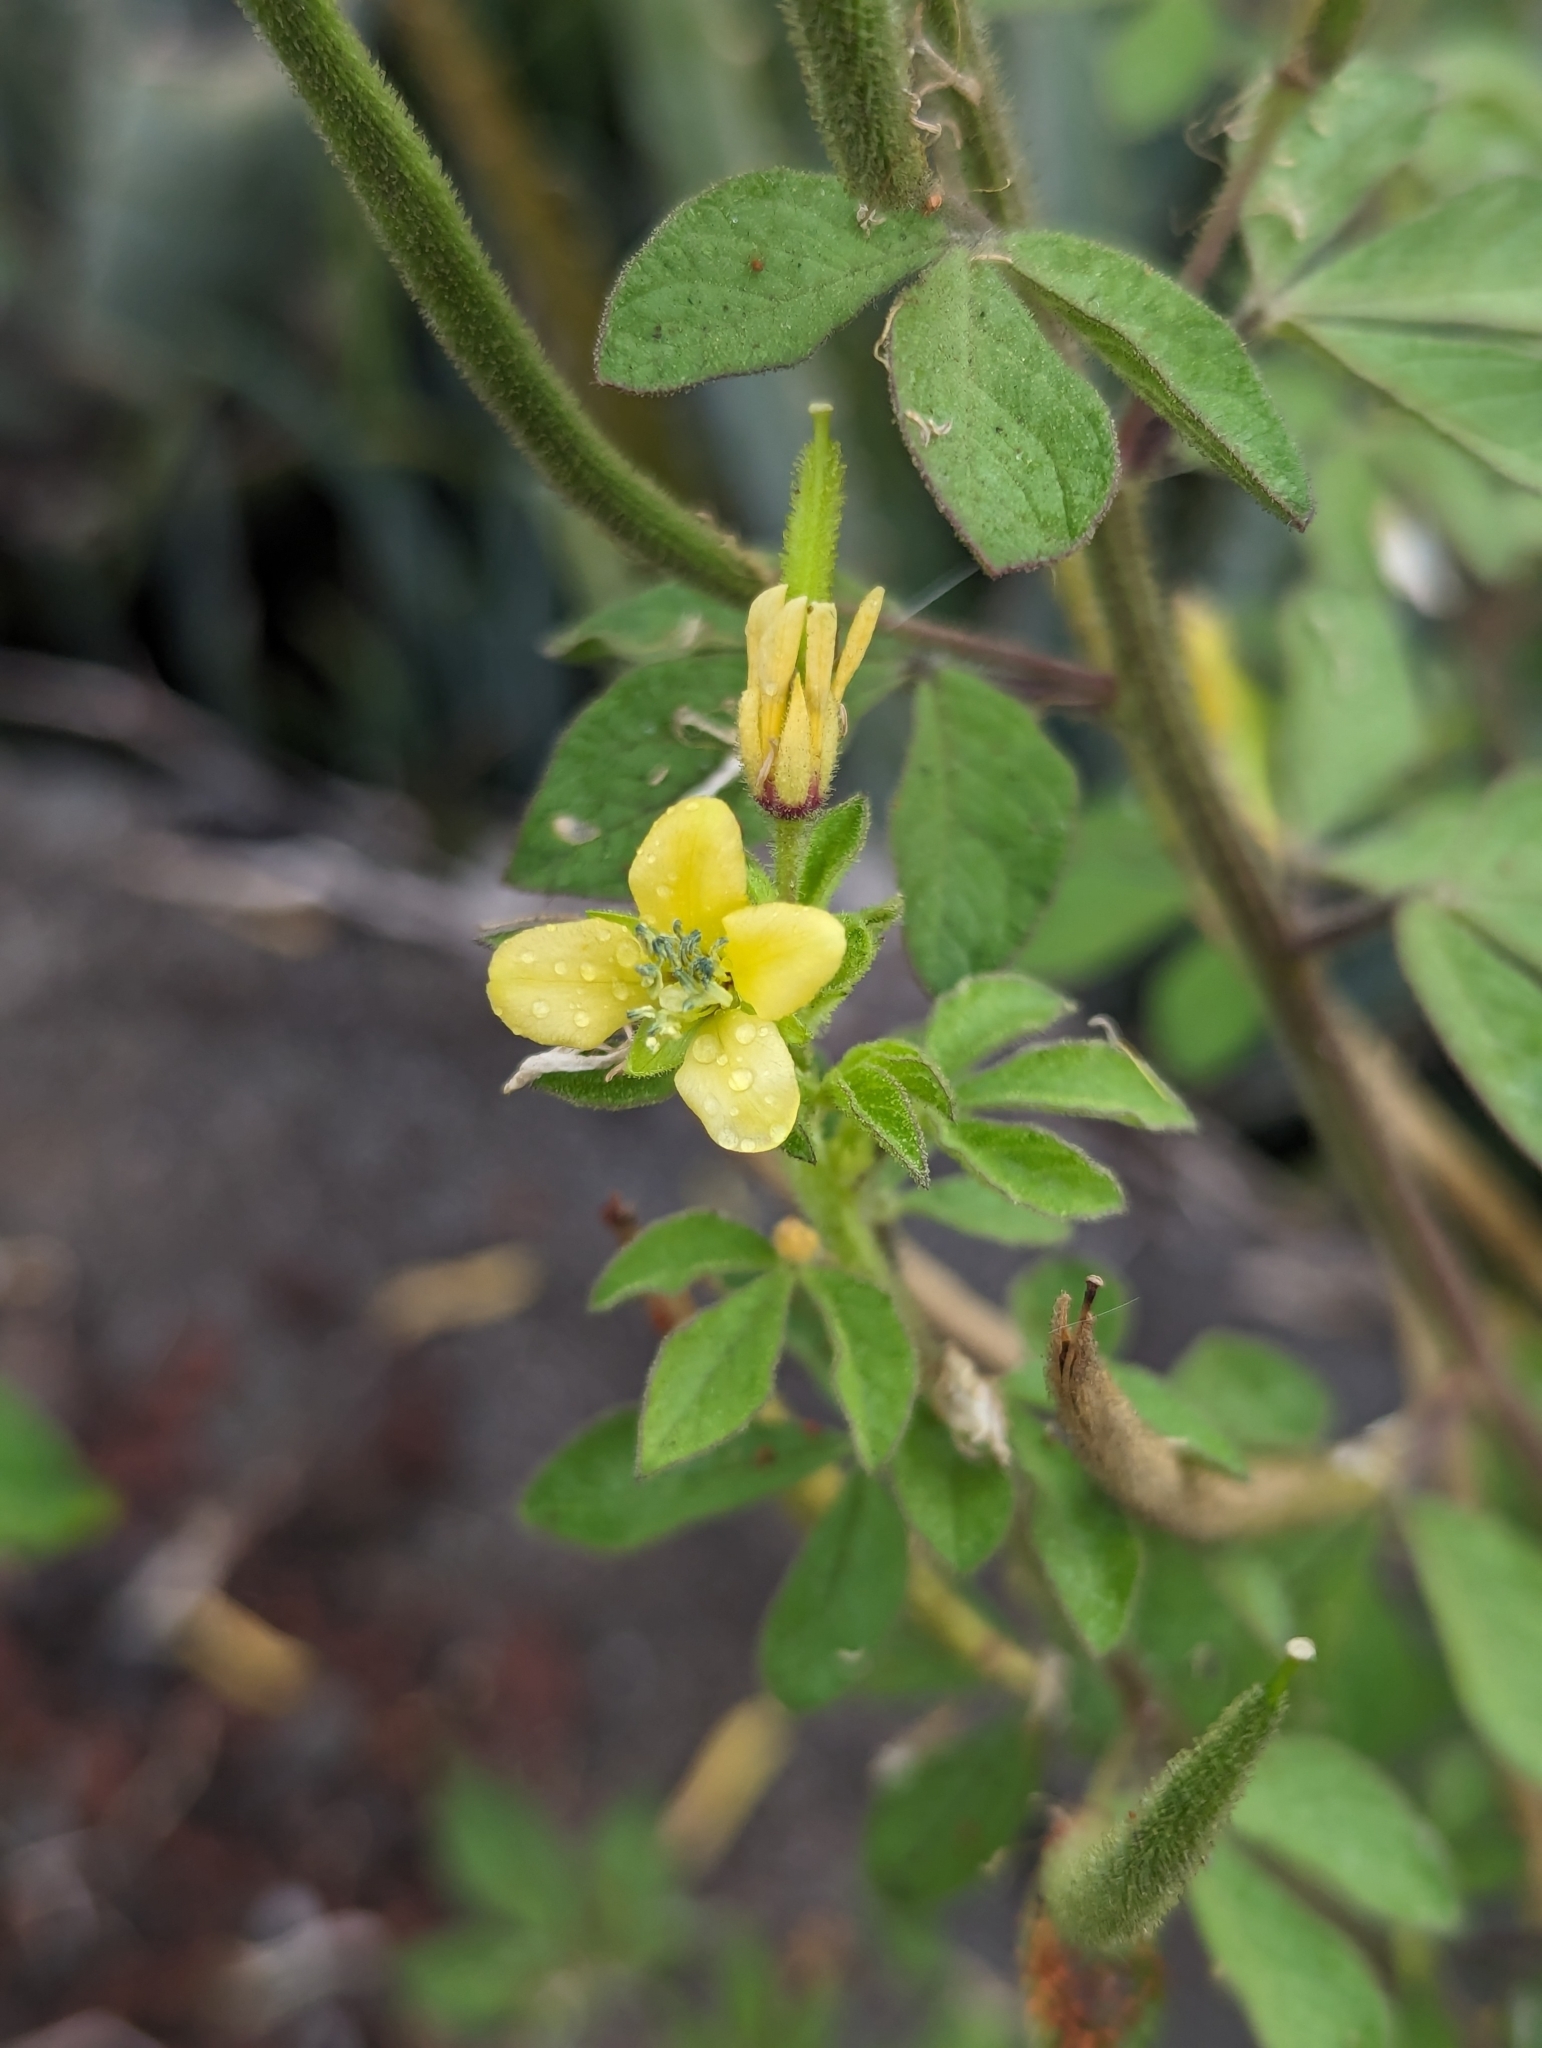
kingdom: Plantae
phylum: Tracheophyta
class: Magnoliopsida
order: Brassicales
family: Cleomaceae
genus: Arivela
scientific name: Arivela viscosa
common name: Asian spiderflower
